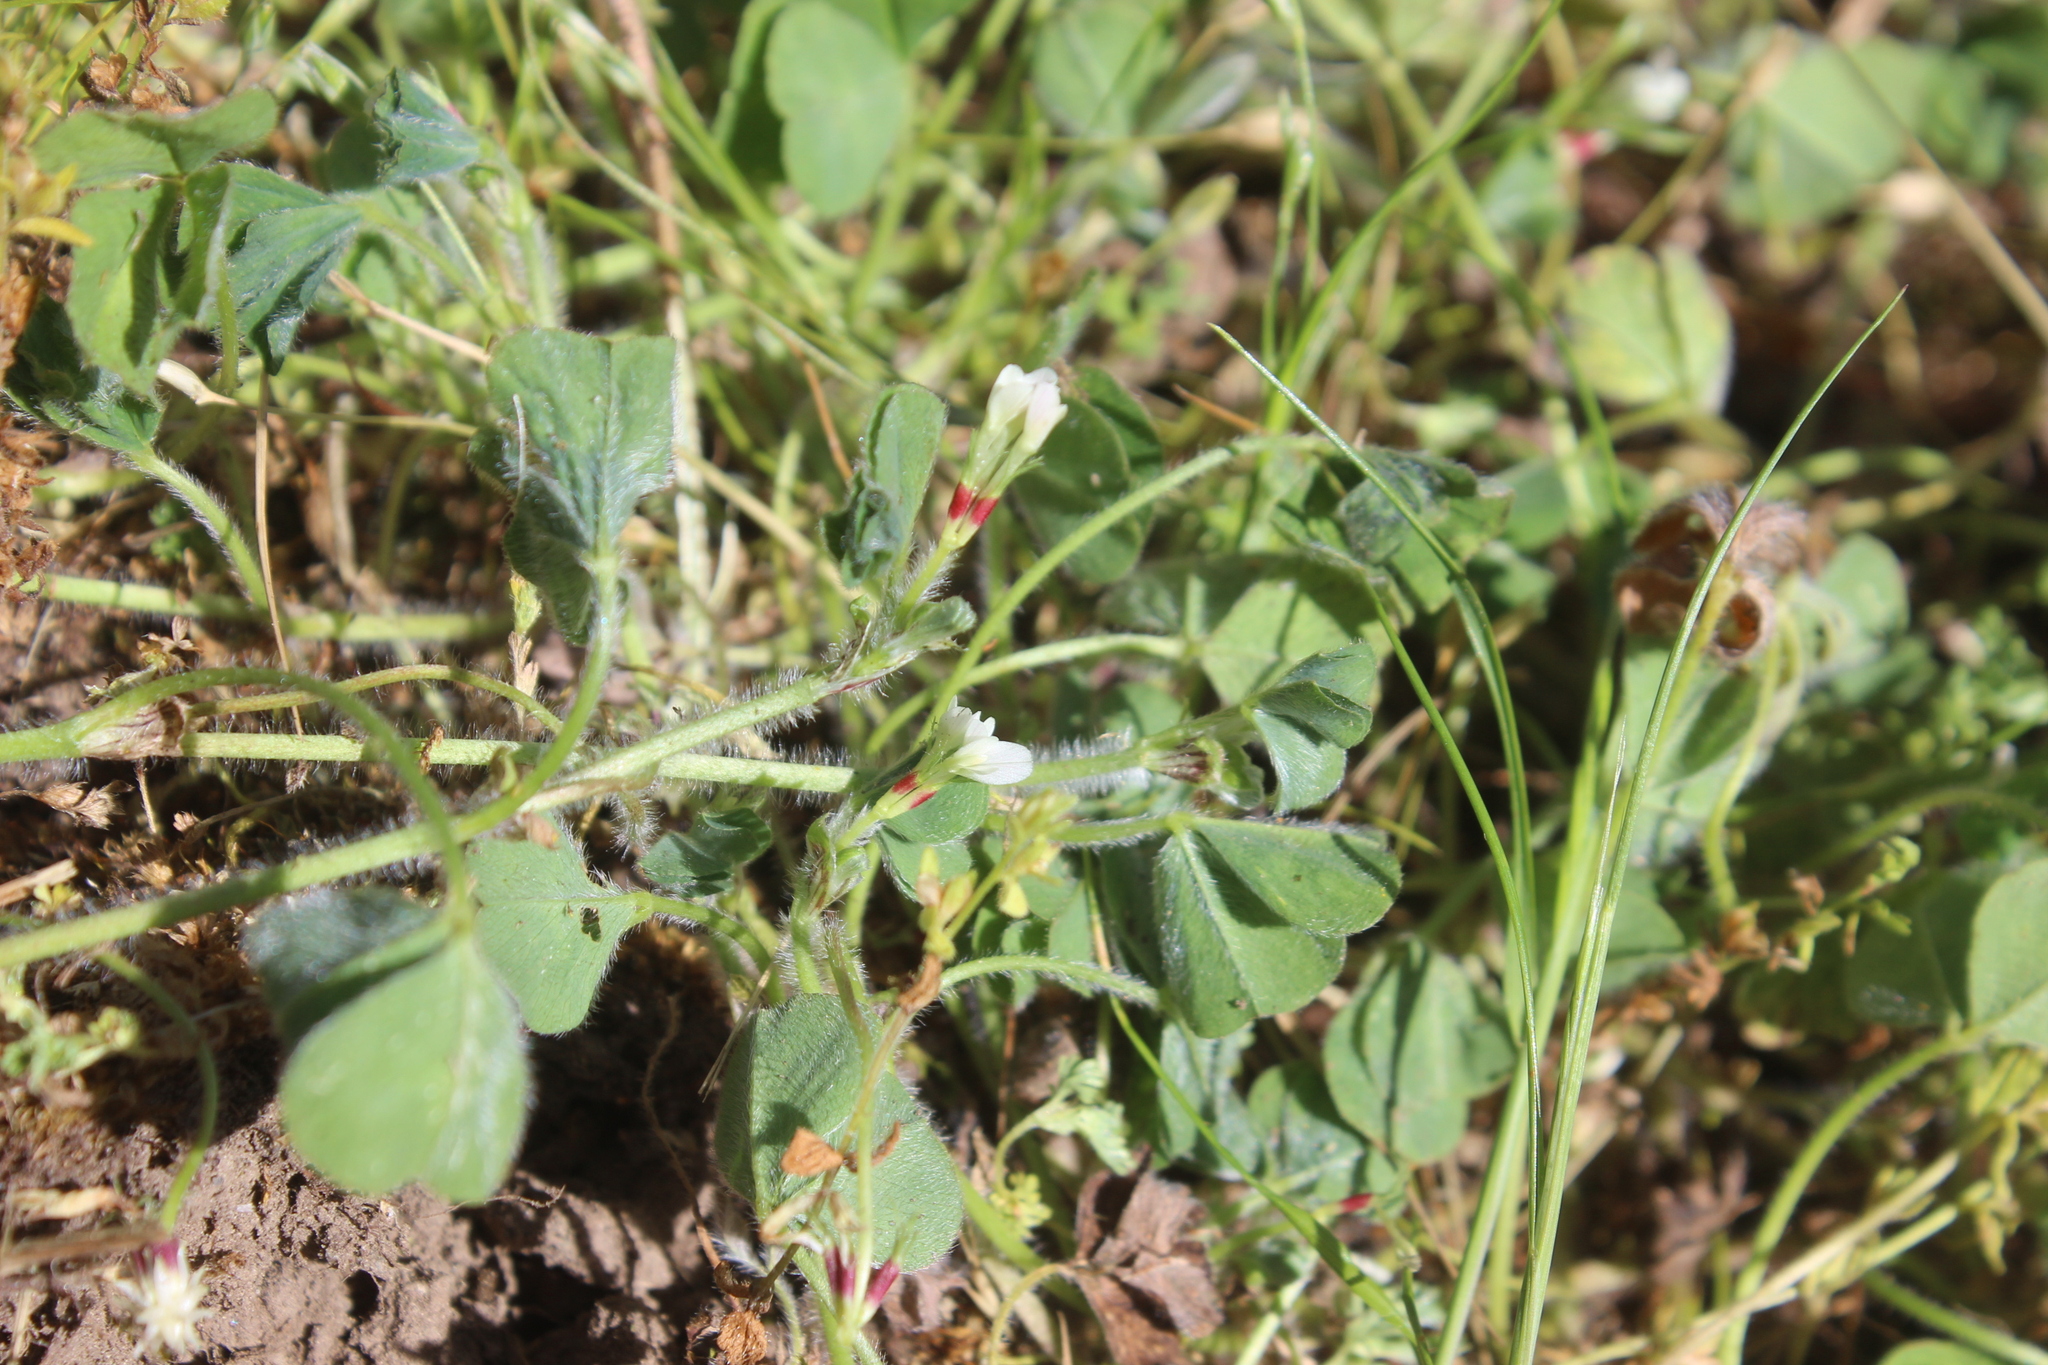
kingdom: Plantae
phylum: Tracheophyta
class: Magnoliopsida
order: Fabales
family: Fabaceae
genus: Trifolium
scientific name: Trifolium subterraneum
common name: Subterranean clover
